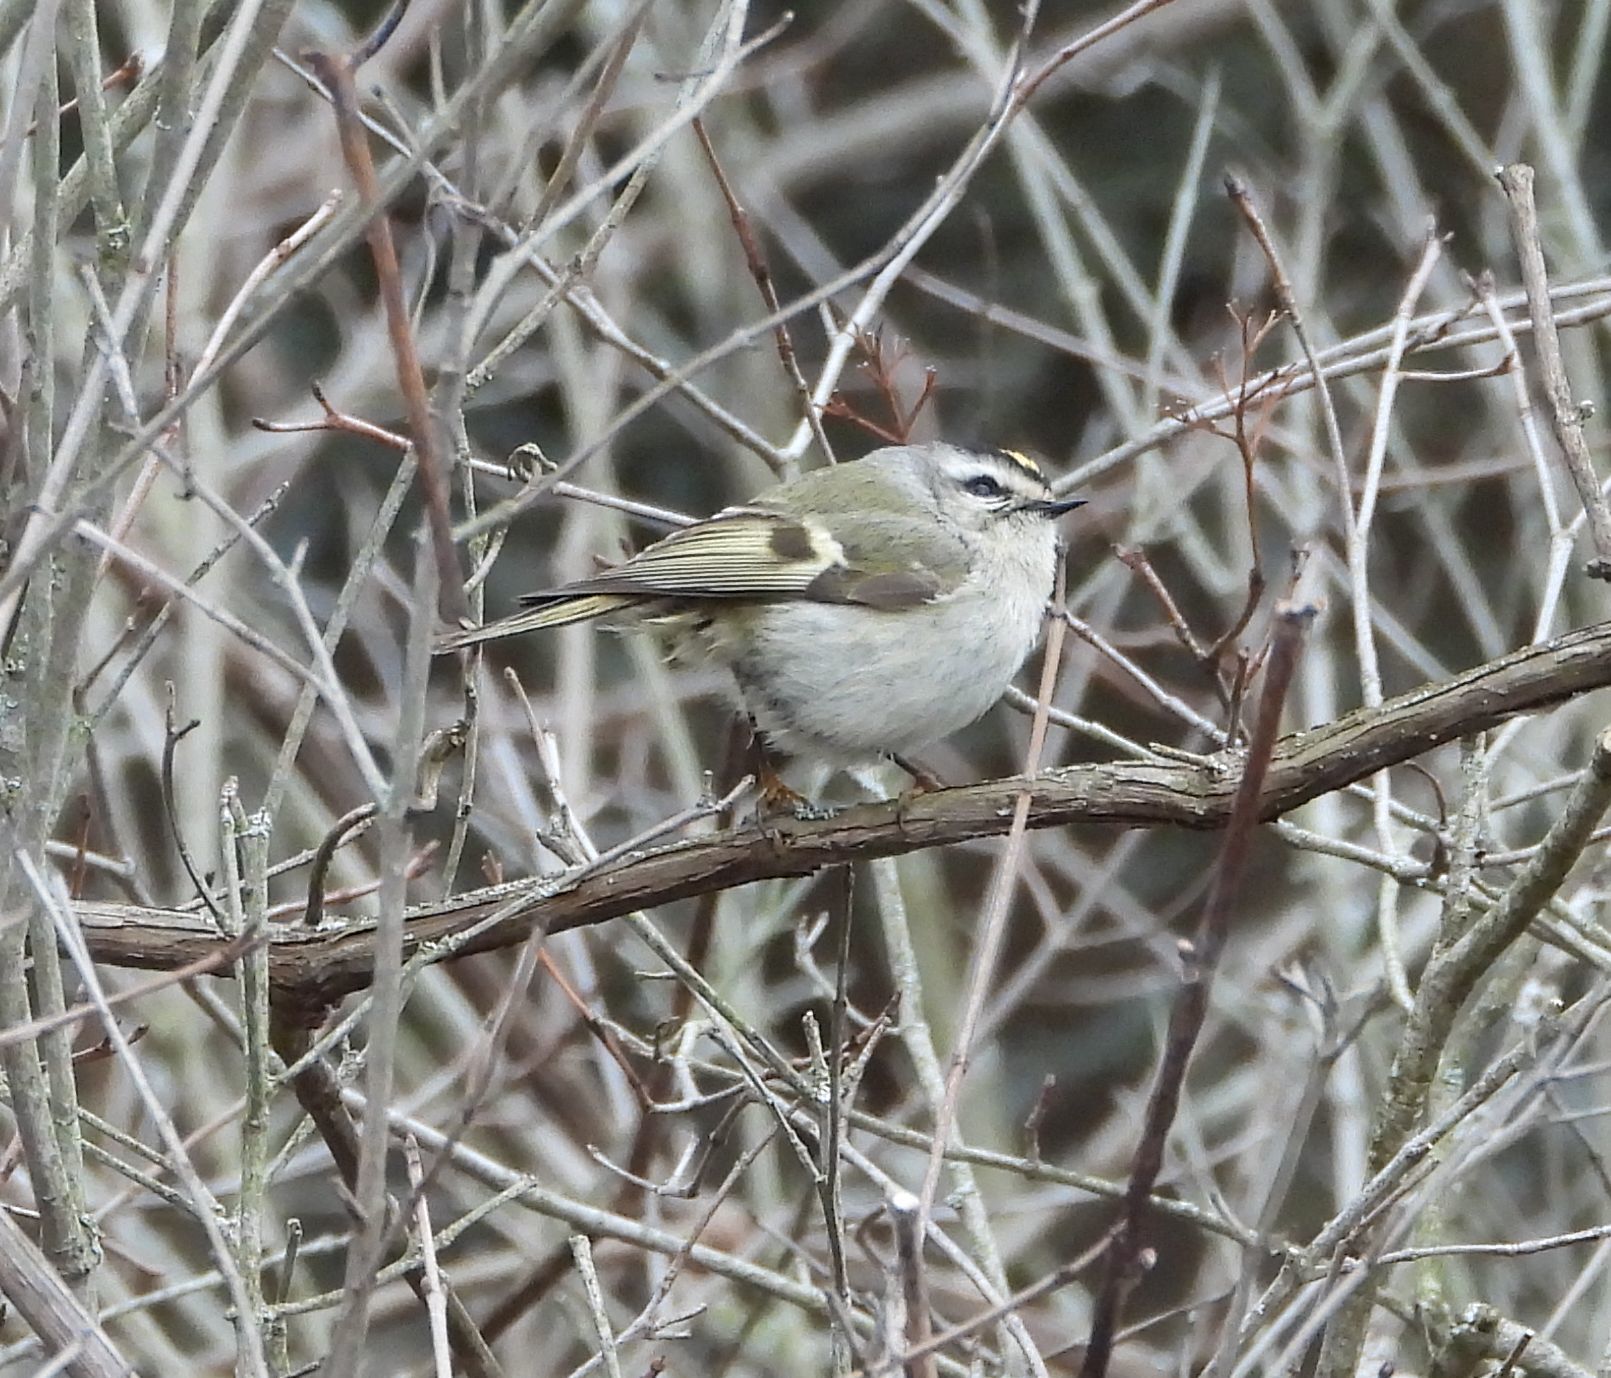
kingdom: Animalia
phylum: Chordata
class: Aves
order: Passeriformes
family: Regulidae
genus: Regulus
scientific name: Regulus satrapa
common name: Golden-crowned kinglet
